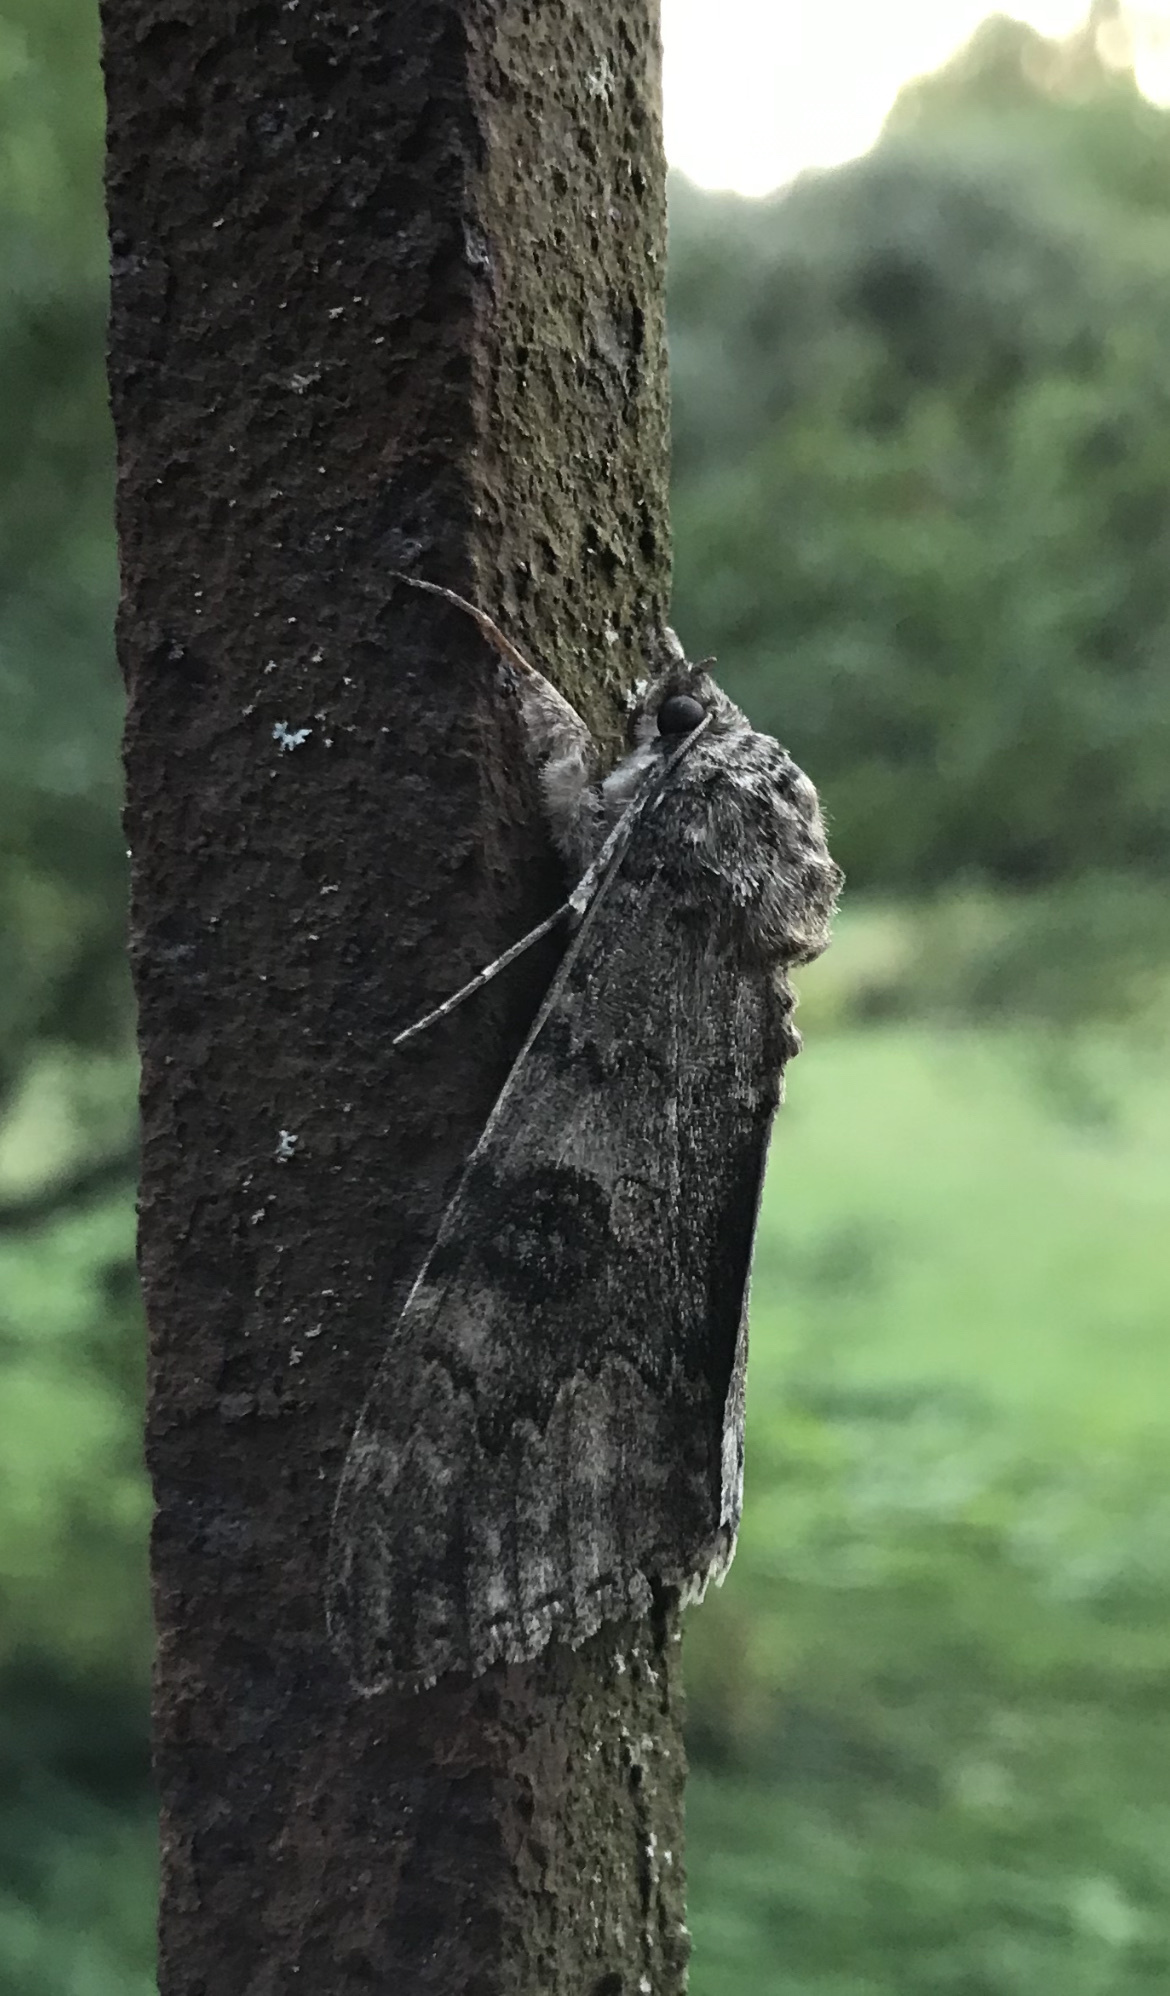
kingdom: Animalia
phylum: Arthropoda
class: Insecta
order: Lepidoptera
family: Erebidae
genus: Catocala
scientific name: Catocala nupta
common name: Red underwing
